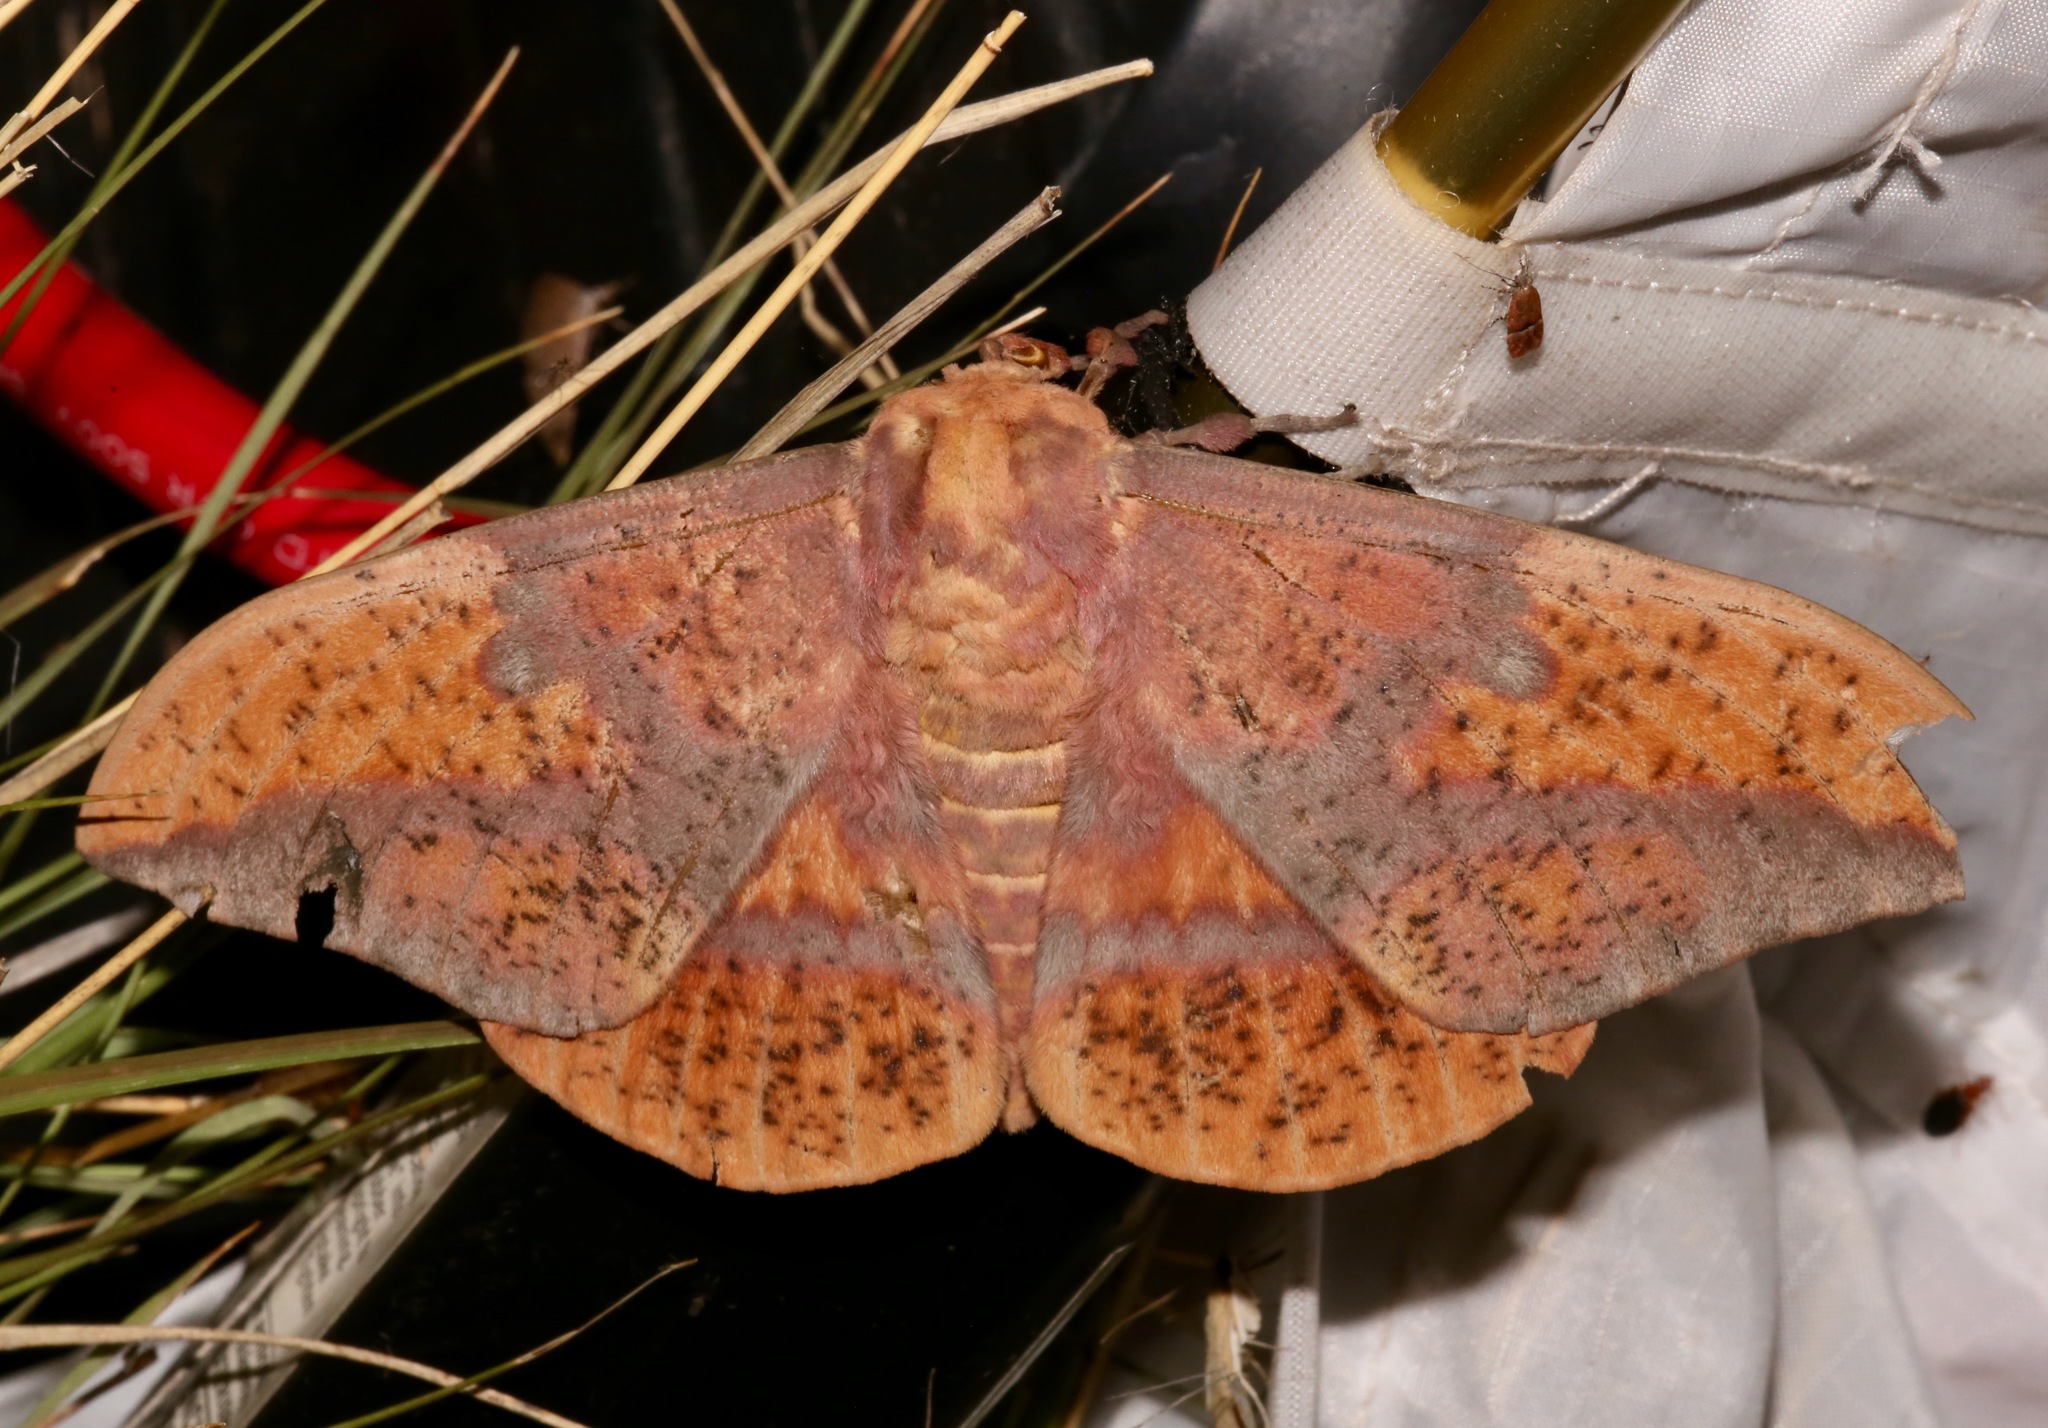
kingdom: Animalia
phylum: Arthropoda
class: Insecta
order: Lepidoptera
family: Saturniidae
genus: Eacles
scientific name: Eacles oslari
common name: Oslar's imperial moth
